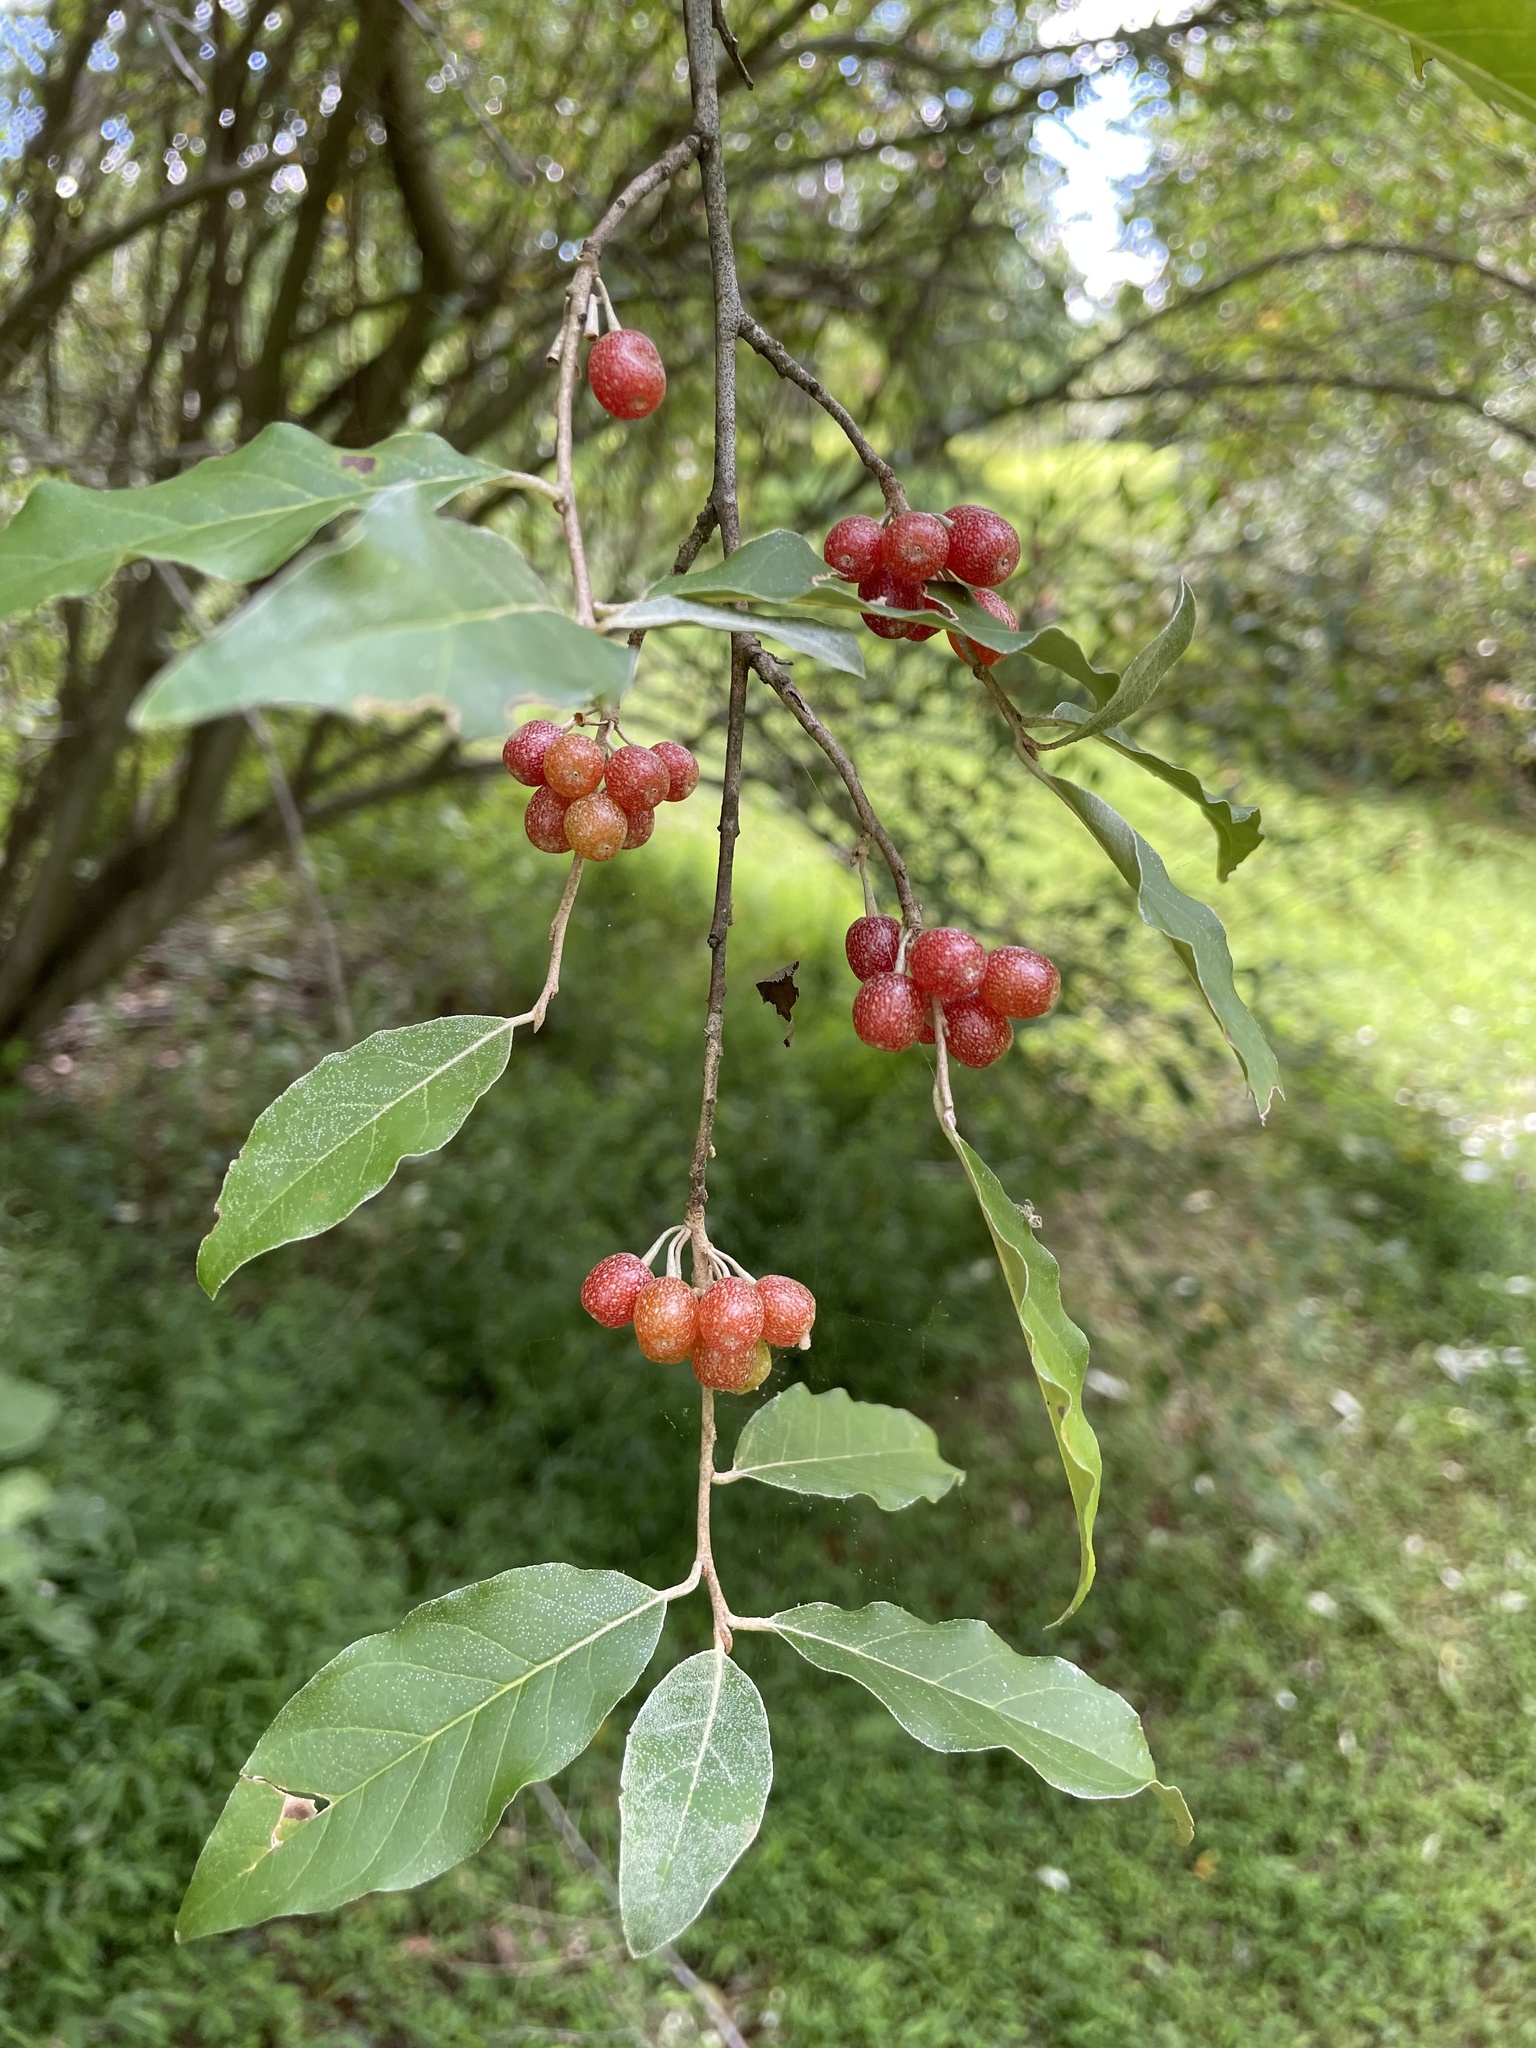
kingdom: Plantae
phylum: Tracheophyta
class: Magnoliopsida
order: Rosales
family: Elaeagnaceae
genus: Elaeagnus
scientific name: Elaeagnus umbellata
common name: Autumn olive
